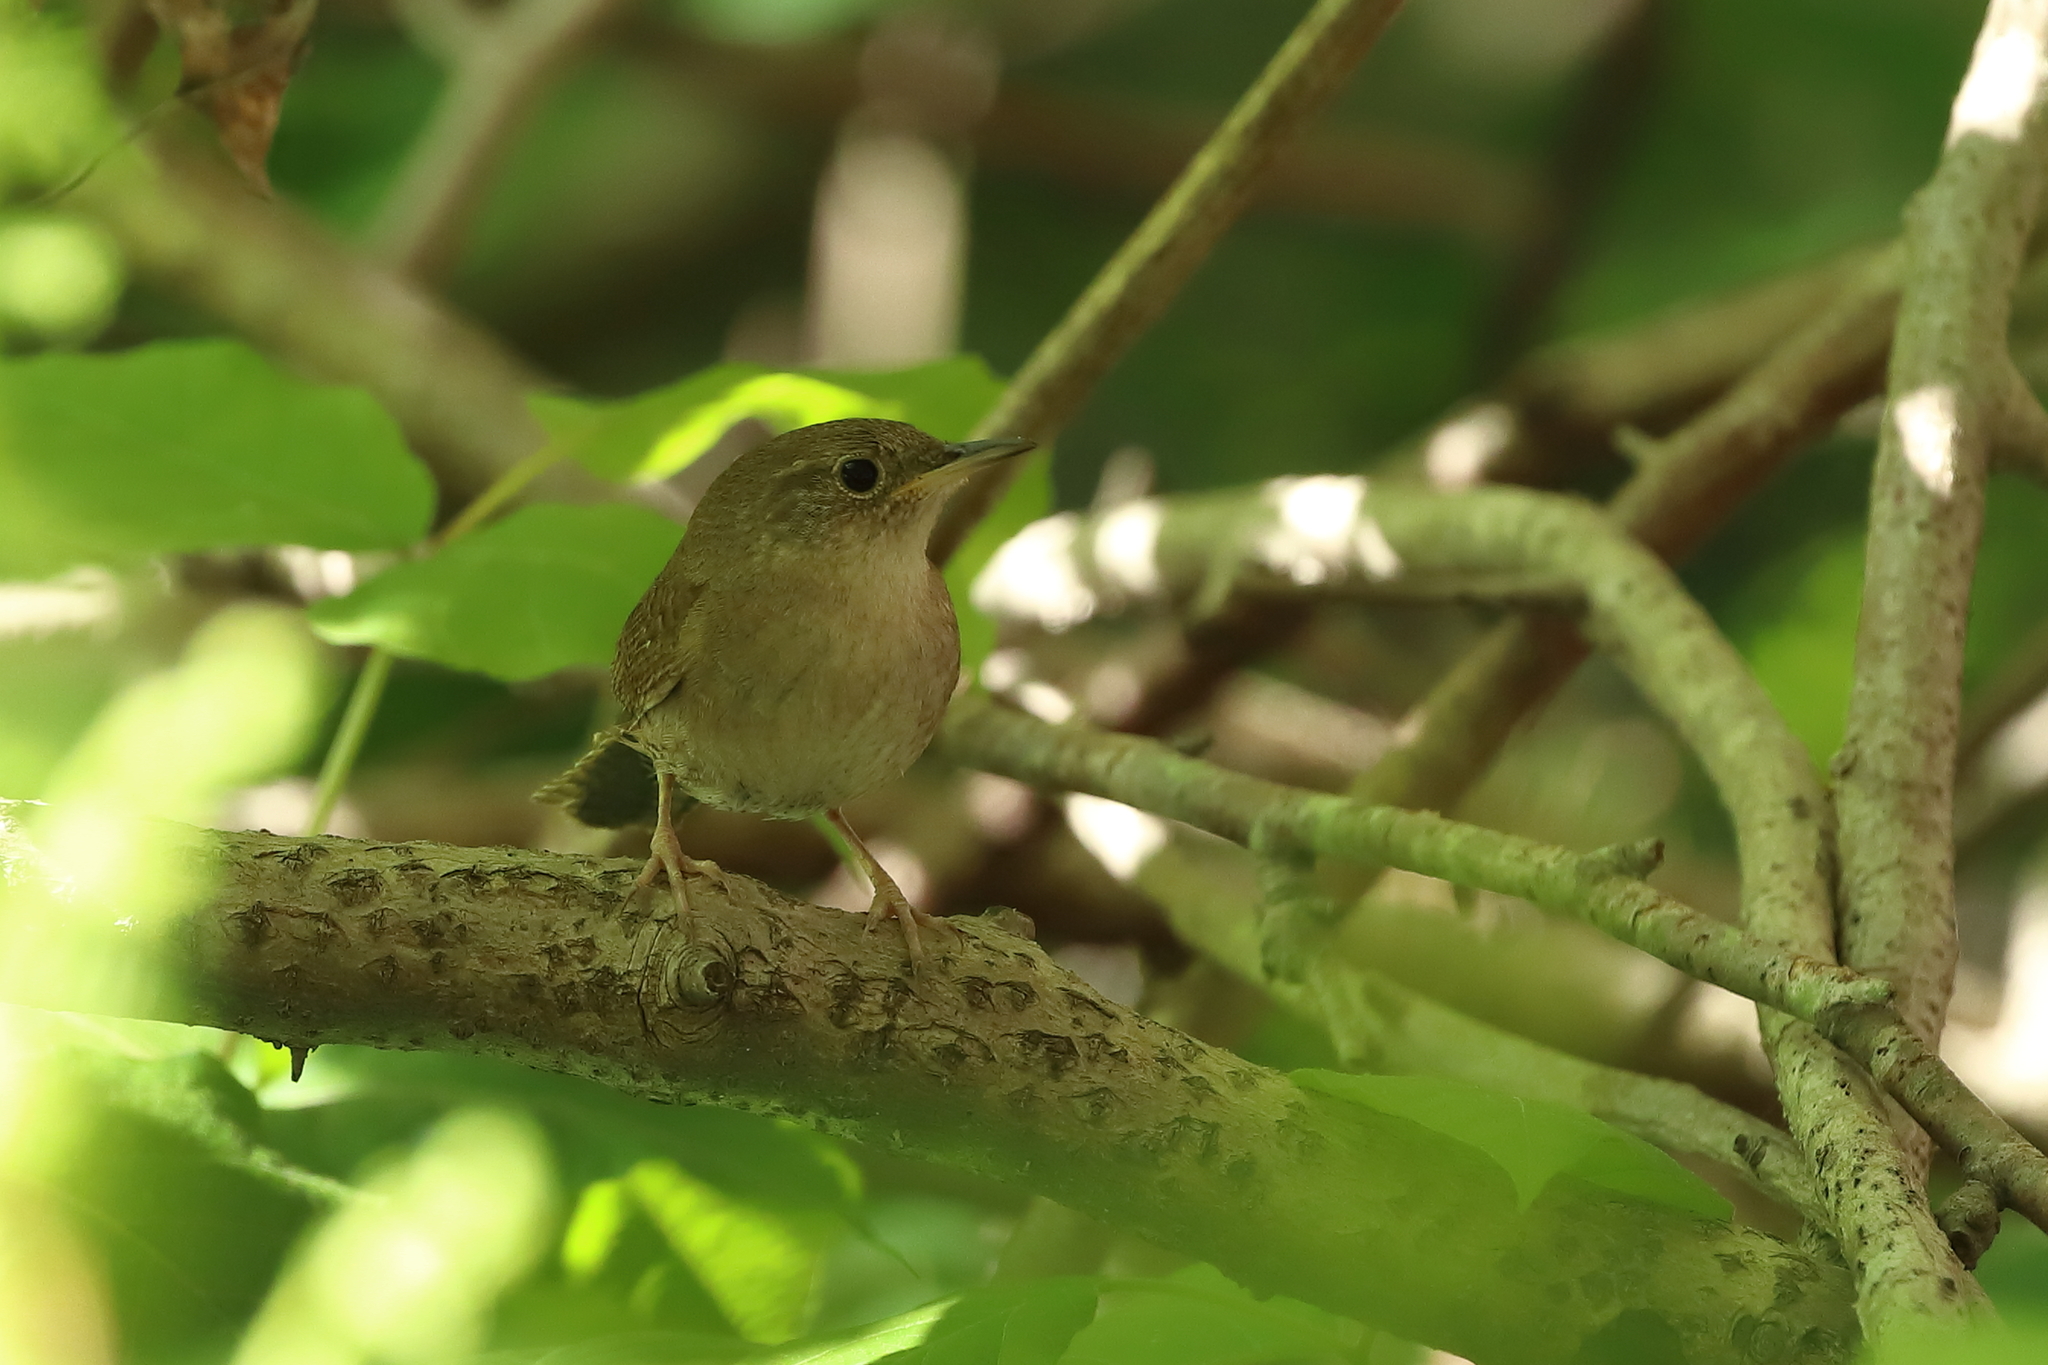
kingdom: Animalia
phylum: Chordata
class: Aves
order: Passeriformes
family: Troglodytidae
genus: Troglodytes
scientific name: Troglodytes aedon
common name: House wren
